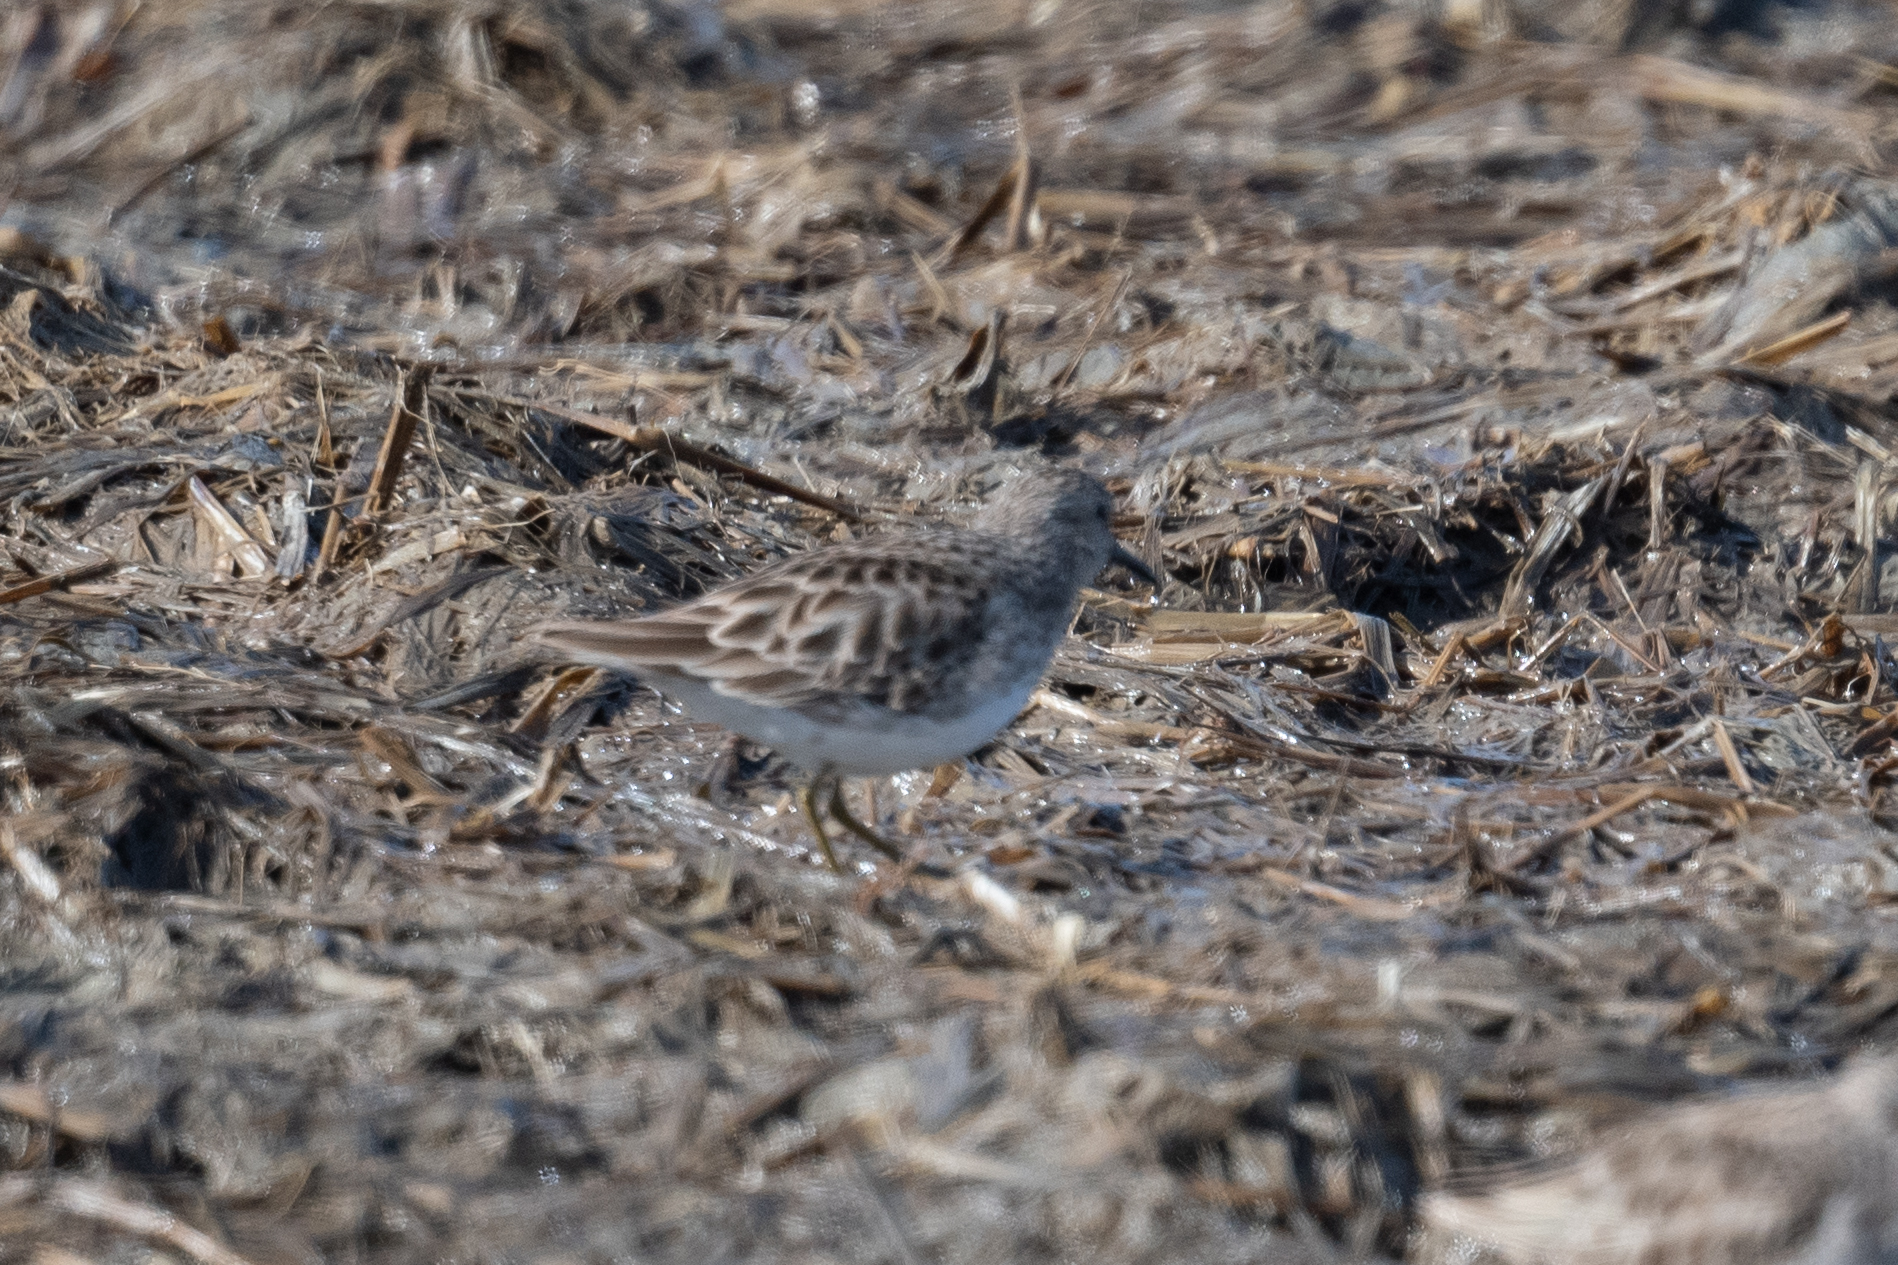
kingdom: Animalia
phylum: Chordata
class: Aves
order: Charadriiformes
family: Scolopacidae
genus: Calidris
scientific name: Calidris minutilla
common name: Least sandpiper
